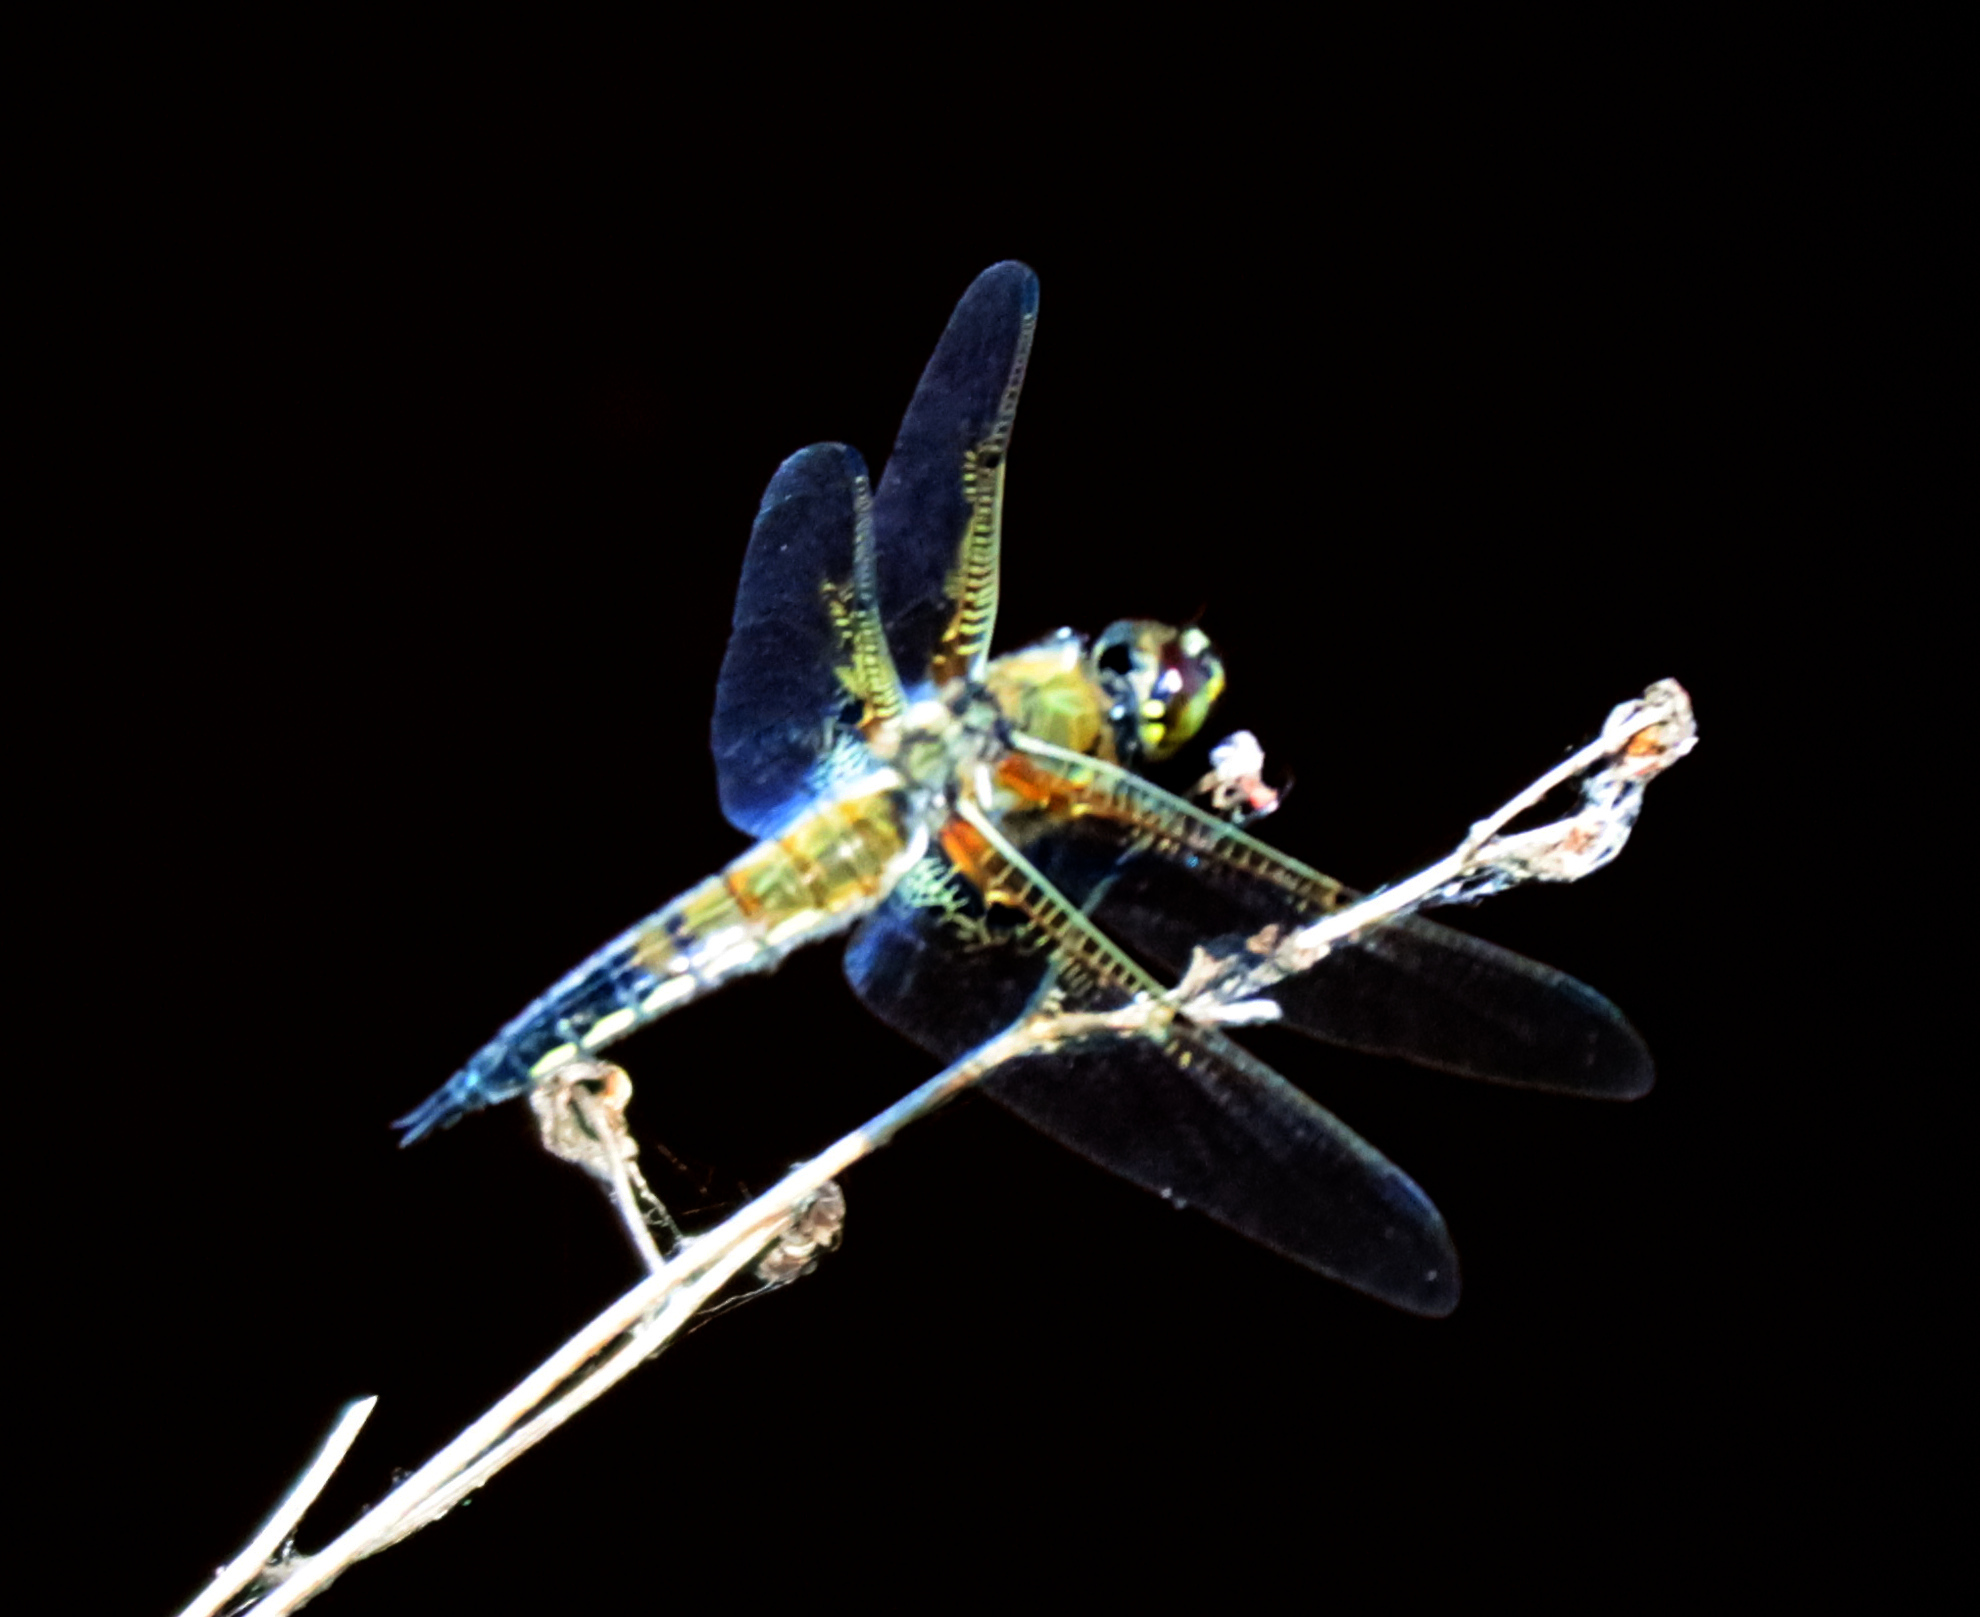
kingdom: Animalia
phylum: Arthropoda
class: Insecta
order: Odonata
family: Libellulidae
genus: Libellula
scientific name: Libellula quadrimaculata
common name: Four-spotted chaser
